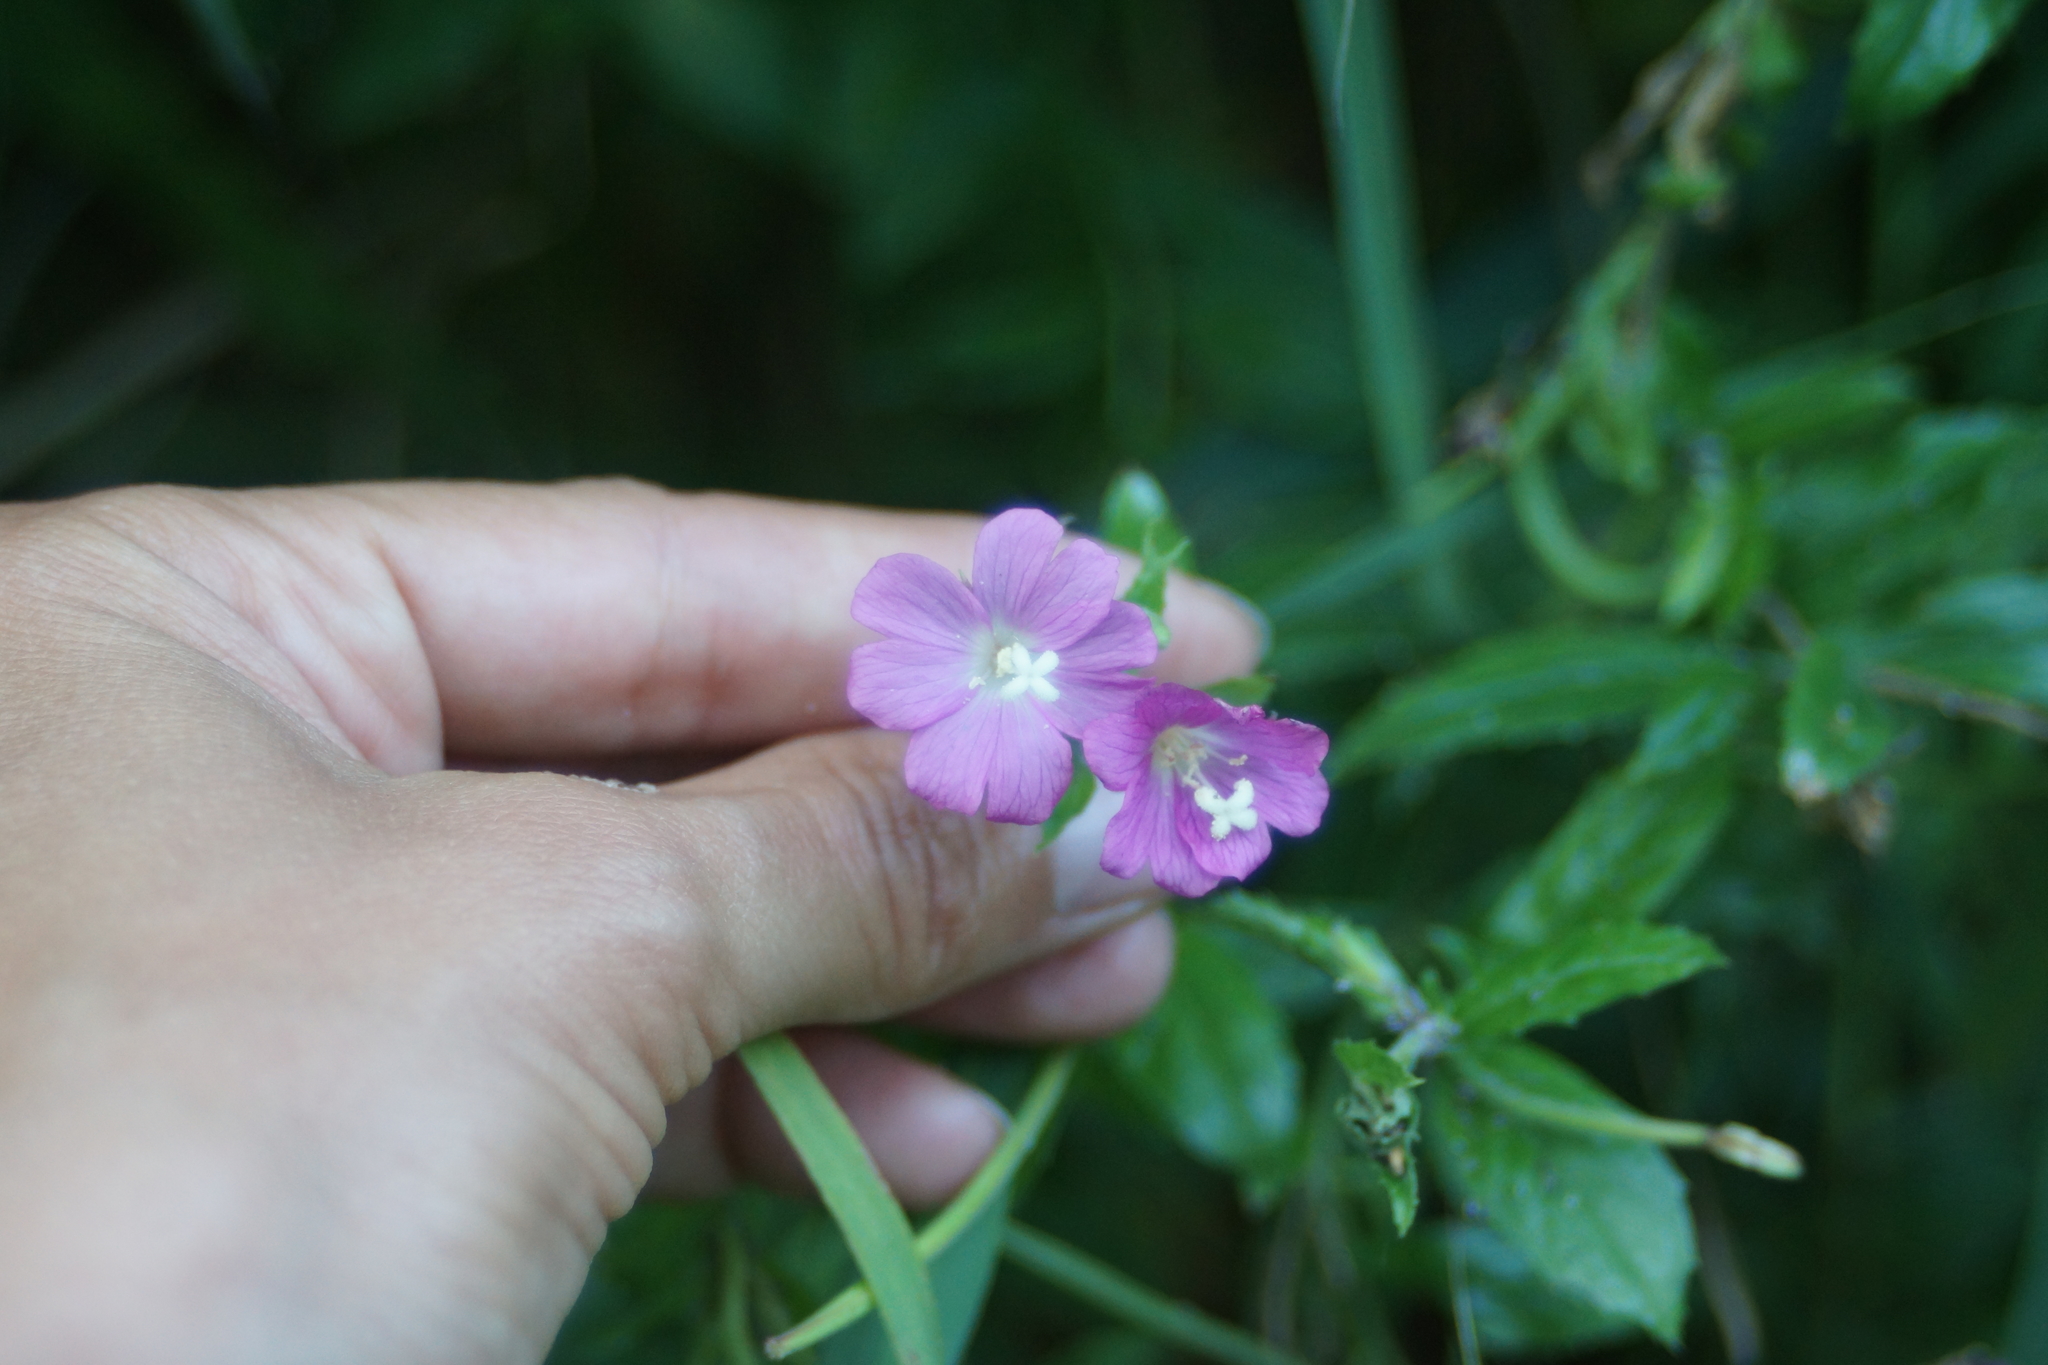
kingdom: Plantae
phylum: Tracheophyta
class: Magnoliopsida
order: Myrtales
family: Onagraceae
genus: Epilobium
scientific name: Epilobium hirsutum
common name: Great willowherb
